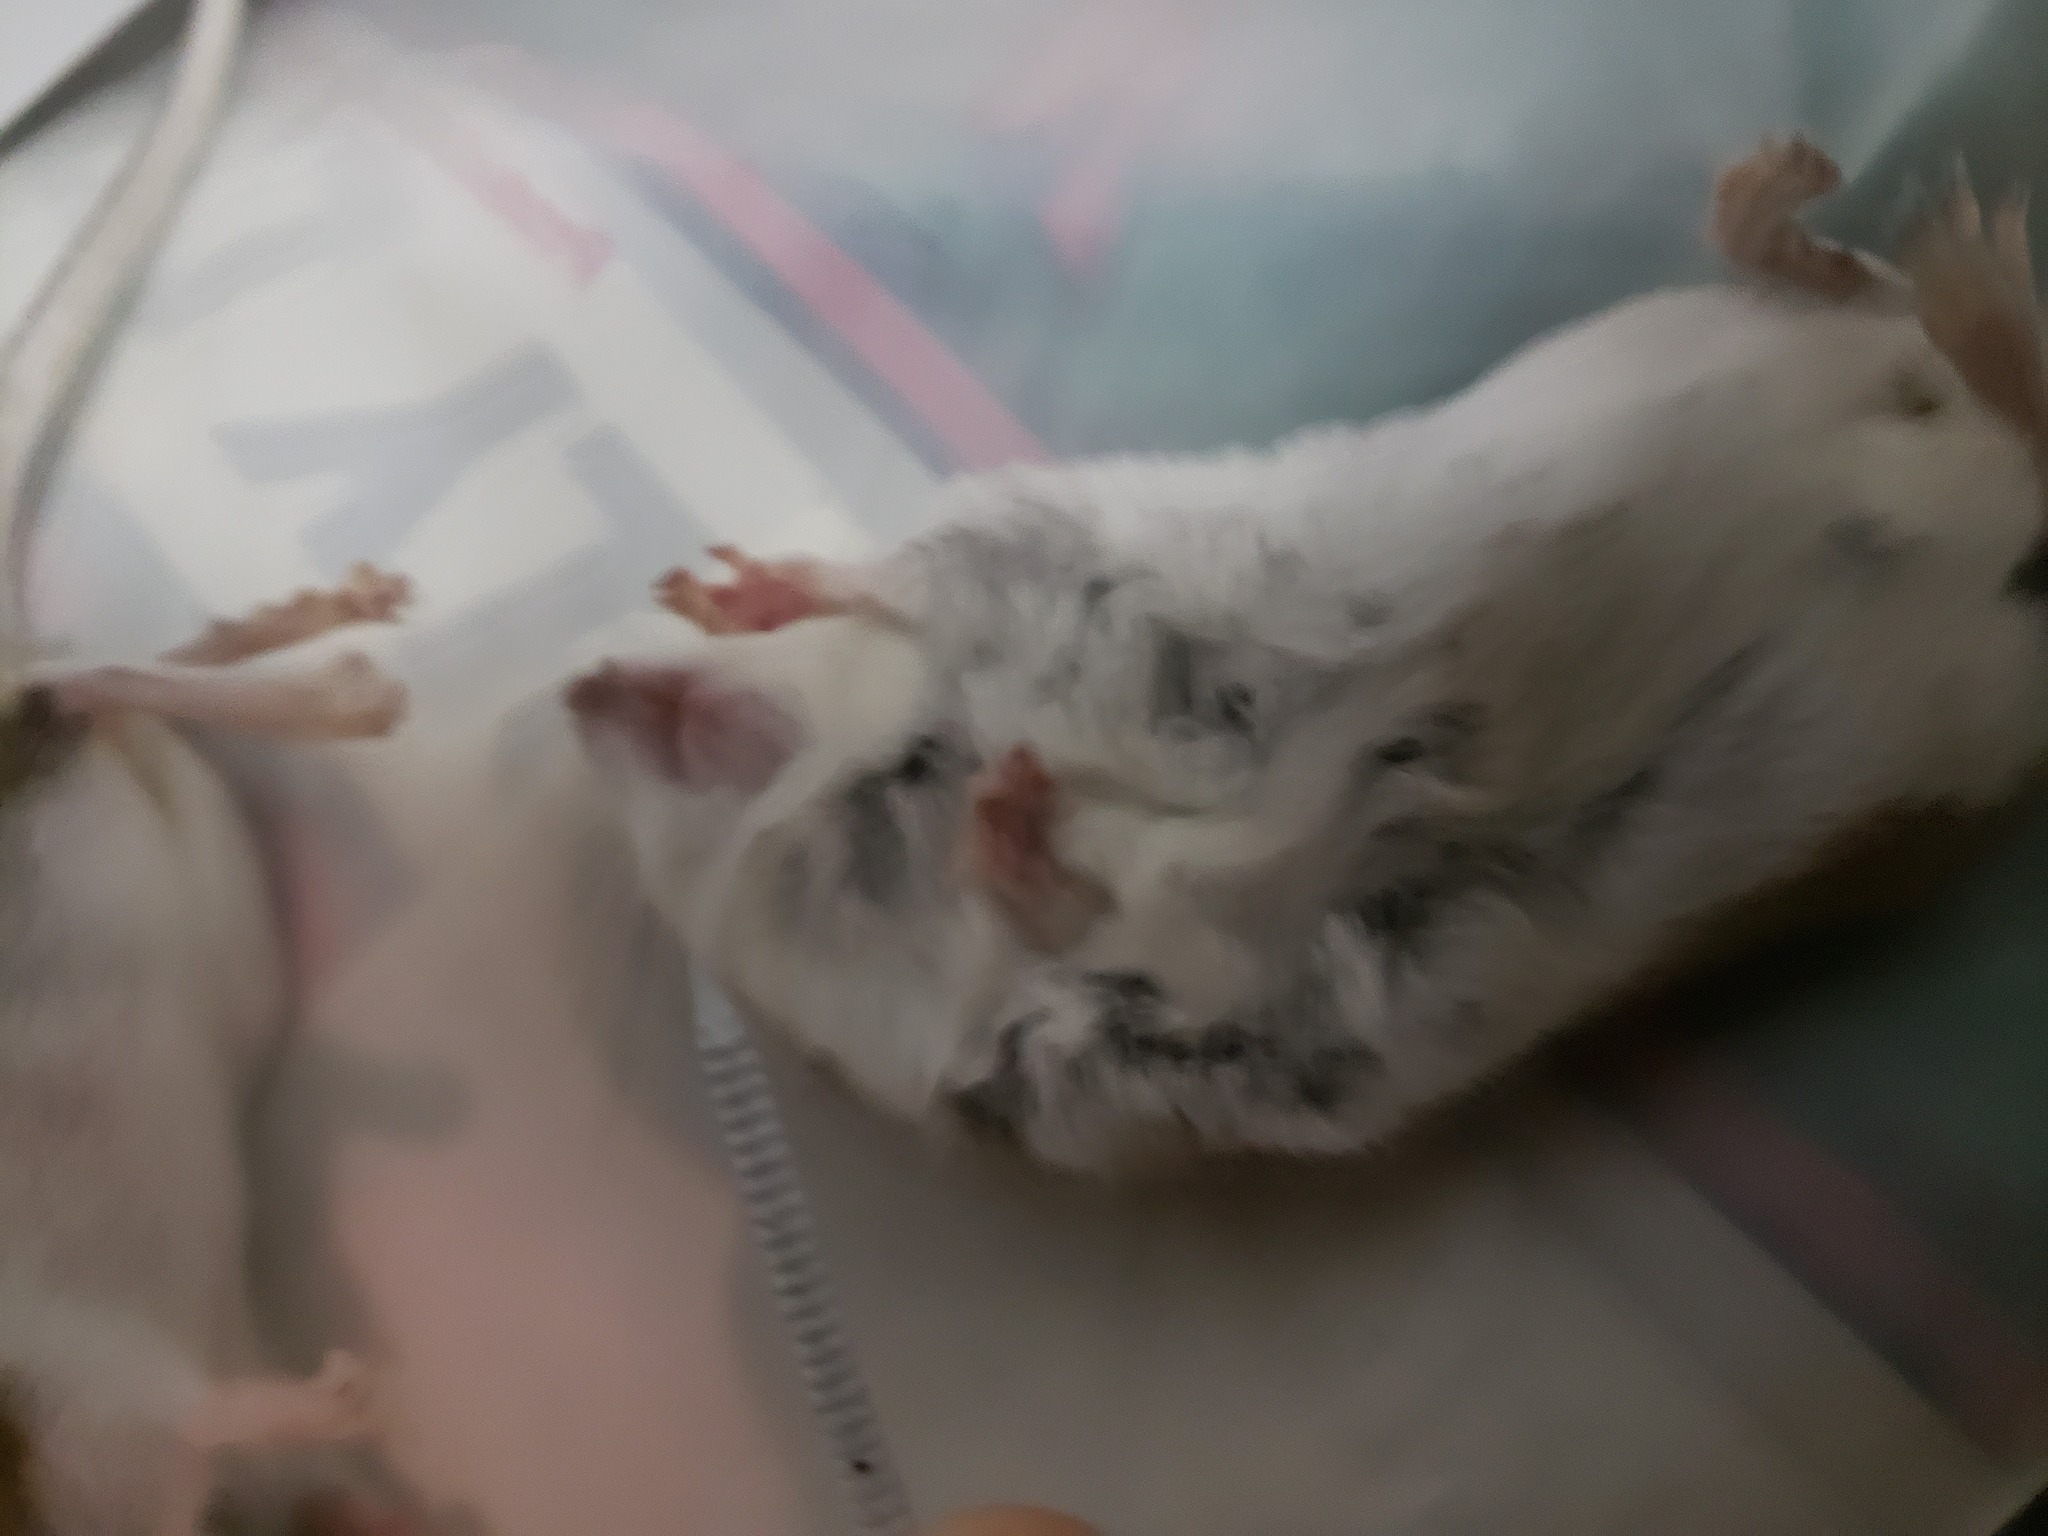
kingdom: Animalia
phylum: Chordata
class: Mammalia
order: Rodentia
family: Cricetidae
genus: Peromyscus
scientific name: Peromyscus maniculatus
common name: Deer mouse
